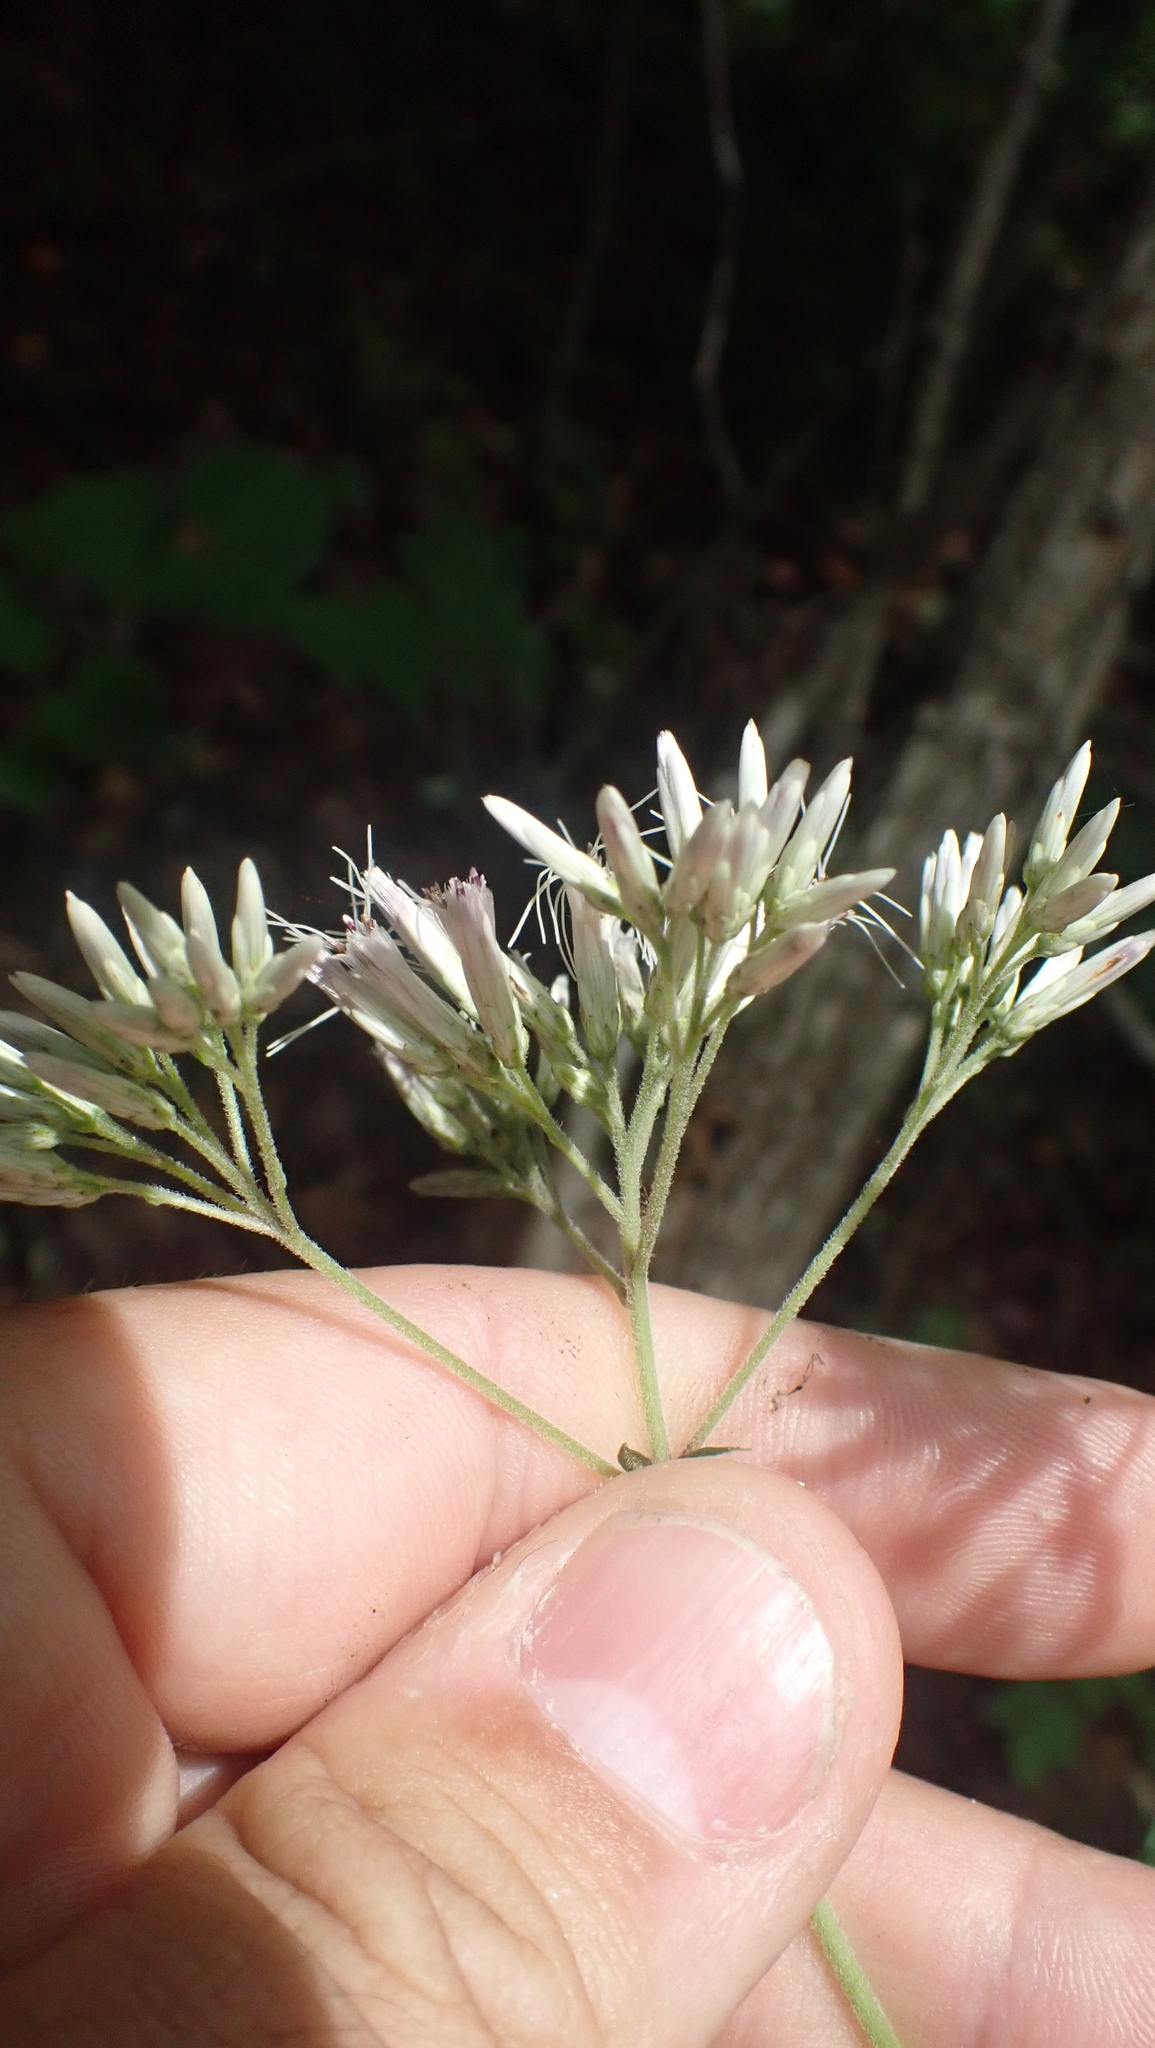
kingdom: Plantae
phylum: Tracheophyta
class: Magnoliopsida
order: Asterales
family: Asteraceae
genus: Eutrochium
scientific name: Eutrochium purpureum
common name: Gravelroot
